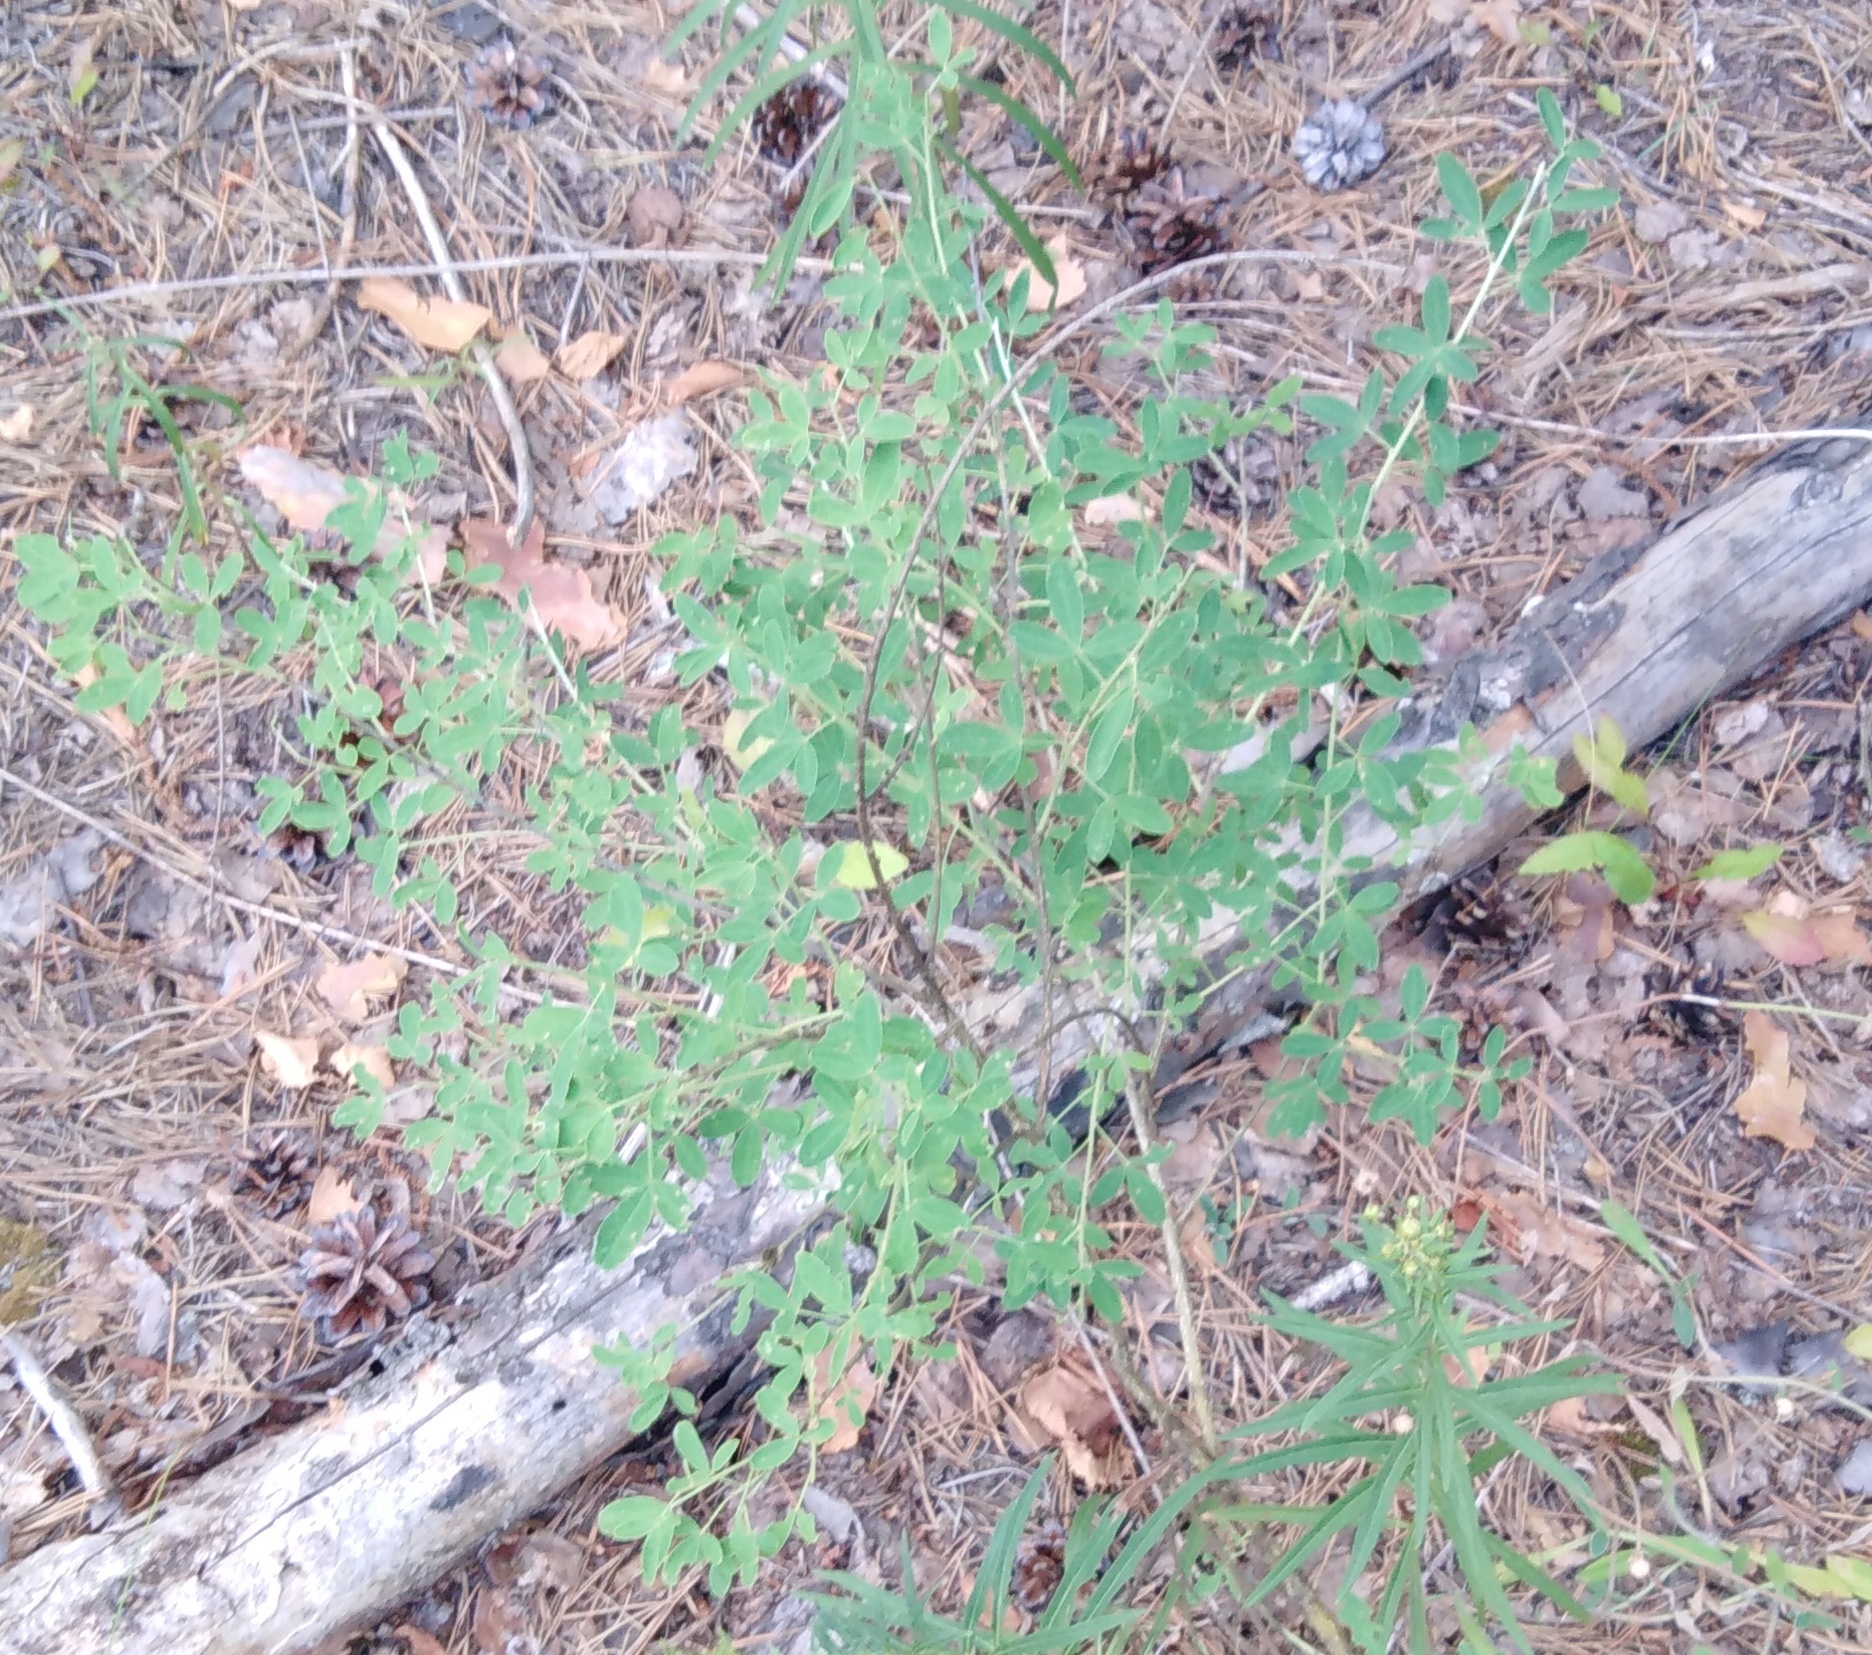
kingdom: Plantae
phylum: Tracheophyta
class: Magnoliopsida
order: Fabales
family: Fabaceae
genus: Chamaecytisus
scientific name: Chamaecytisus ruthenicus
